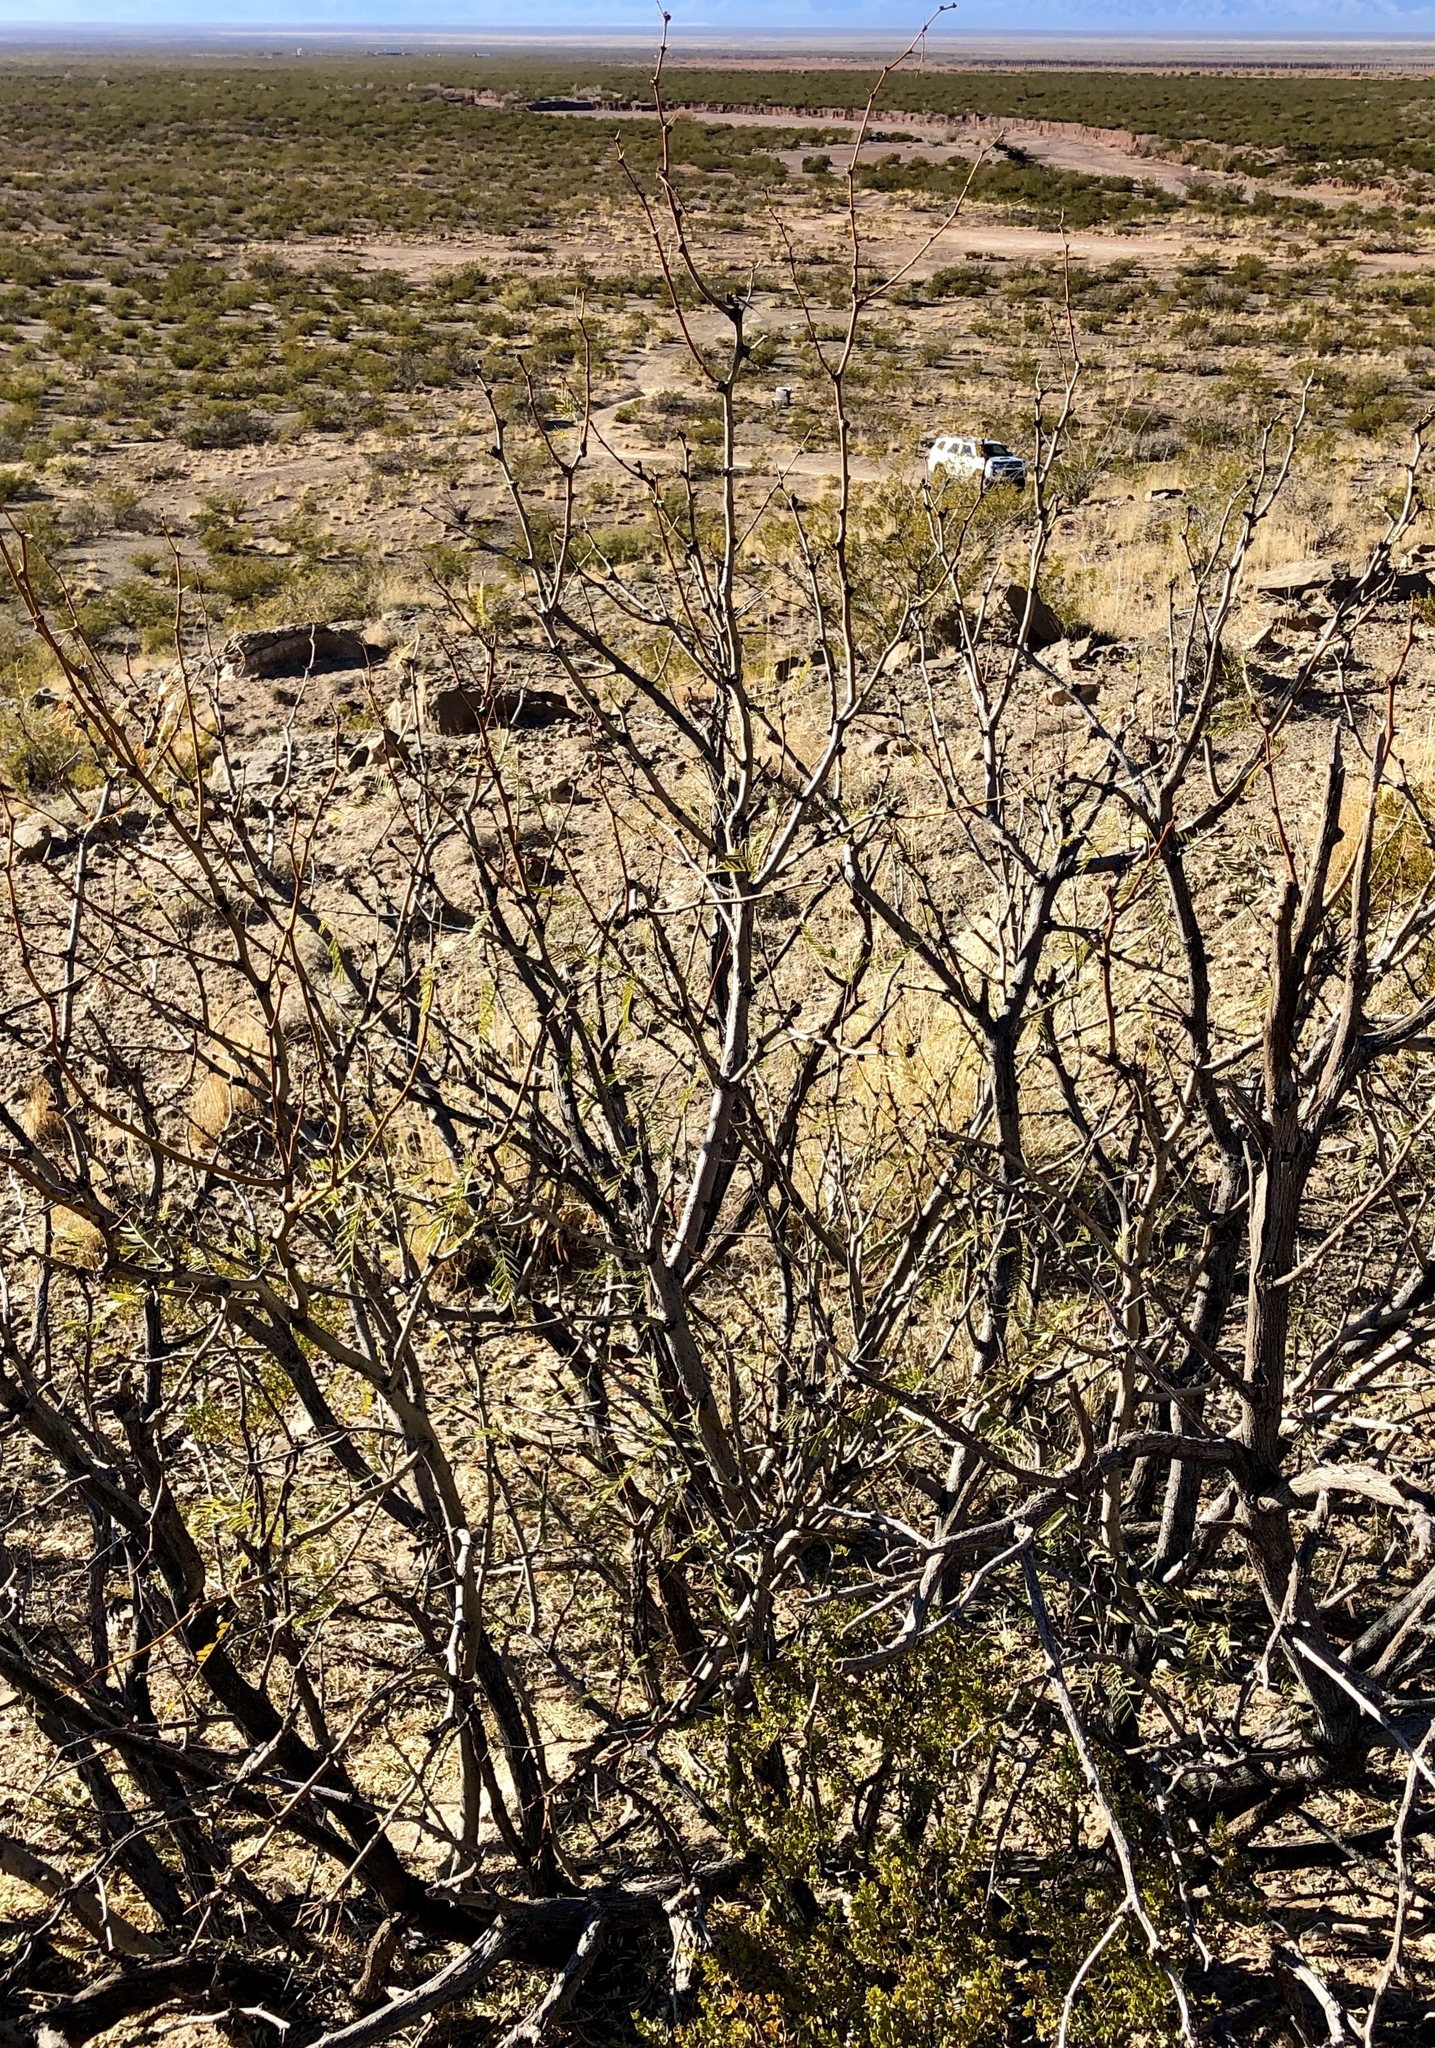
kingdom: Plantae
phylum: Tracheophyta
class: Magnoliopsida
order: Fabales
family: Fabaceae
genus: Prosopis
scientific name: Prosopis glandulosa
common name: Honey mesquite
